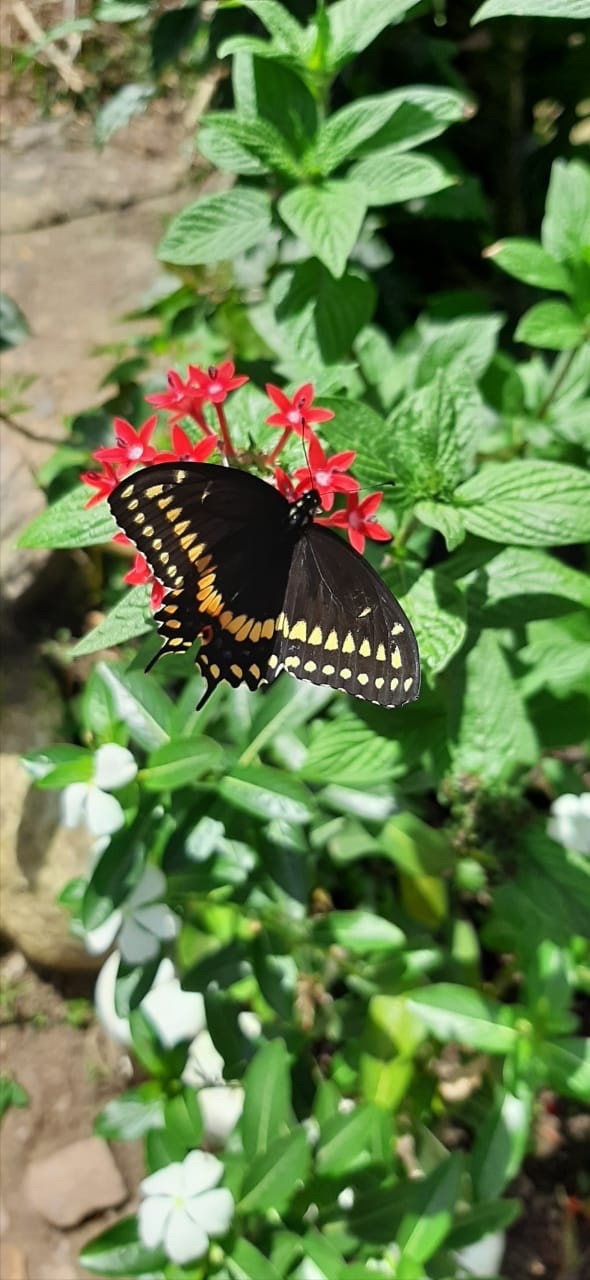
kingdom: Animalia
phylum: Arthropoda
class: Insecta
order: Lepidoptera
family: Papilionidae
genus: Papilio
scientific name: Papilio polyxenes
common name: Black swallowtail
